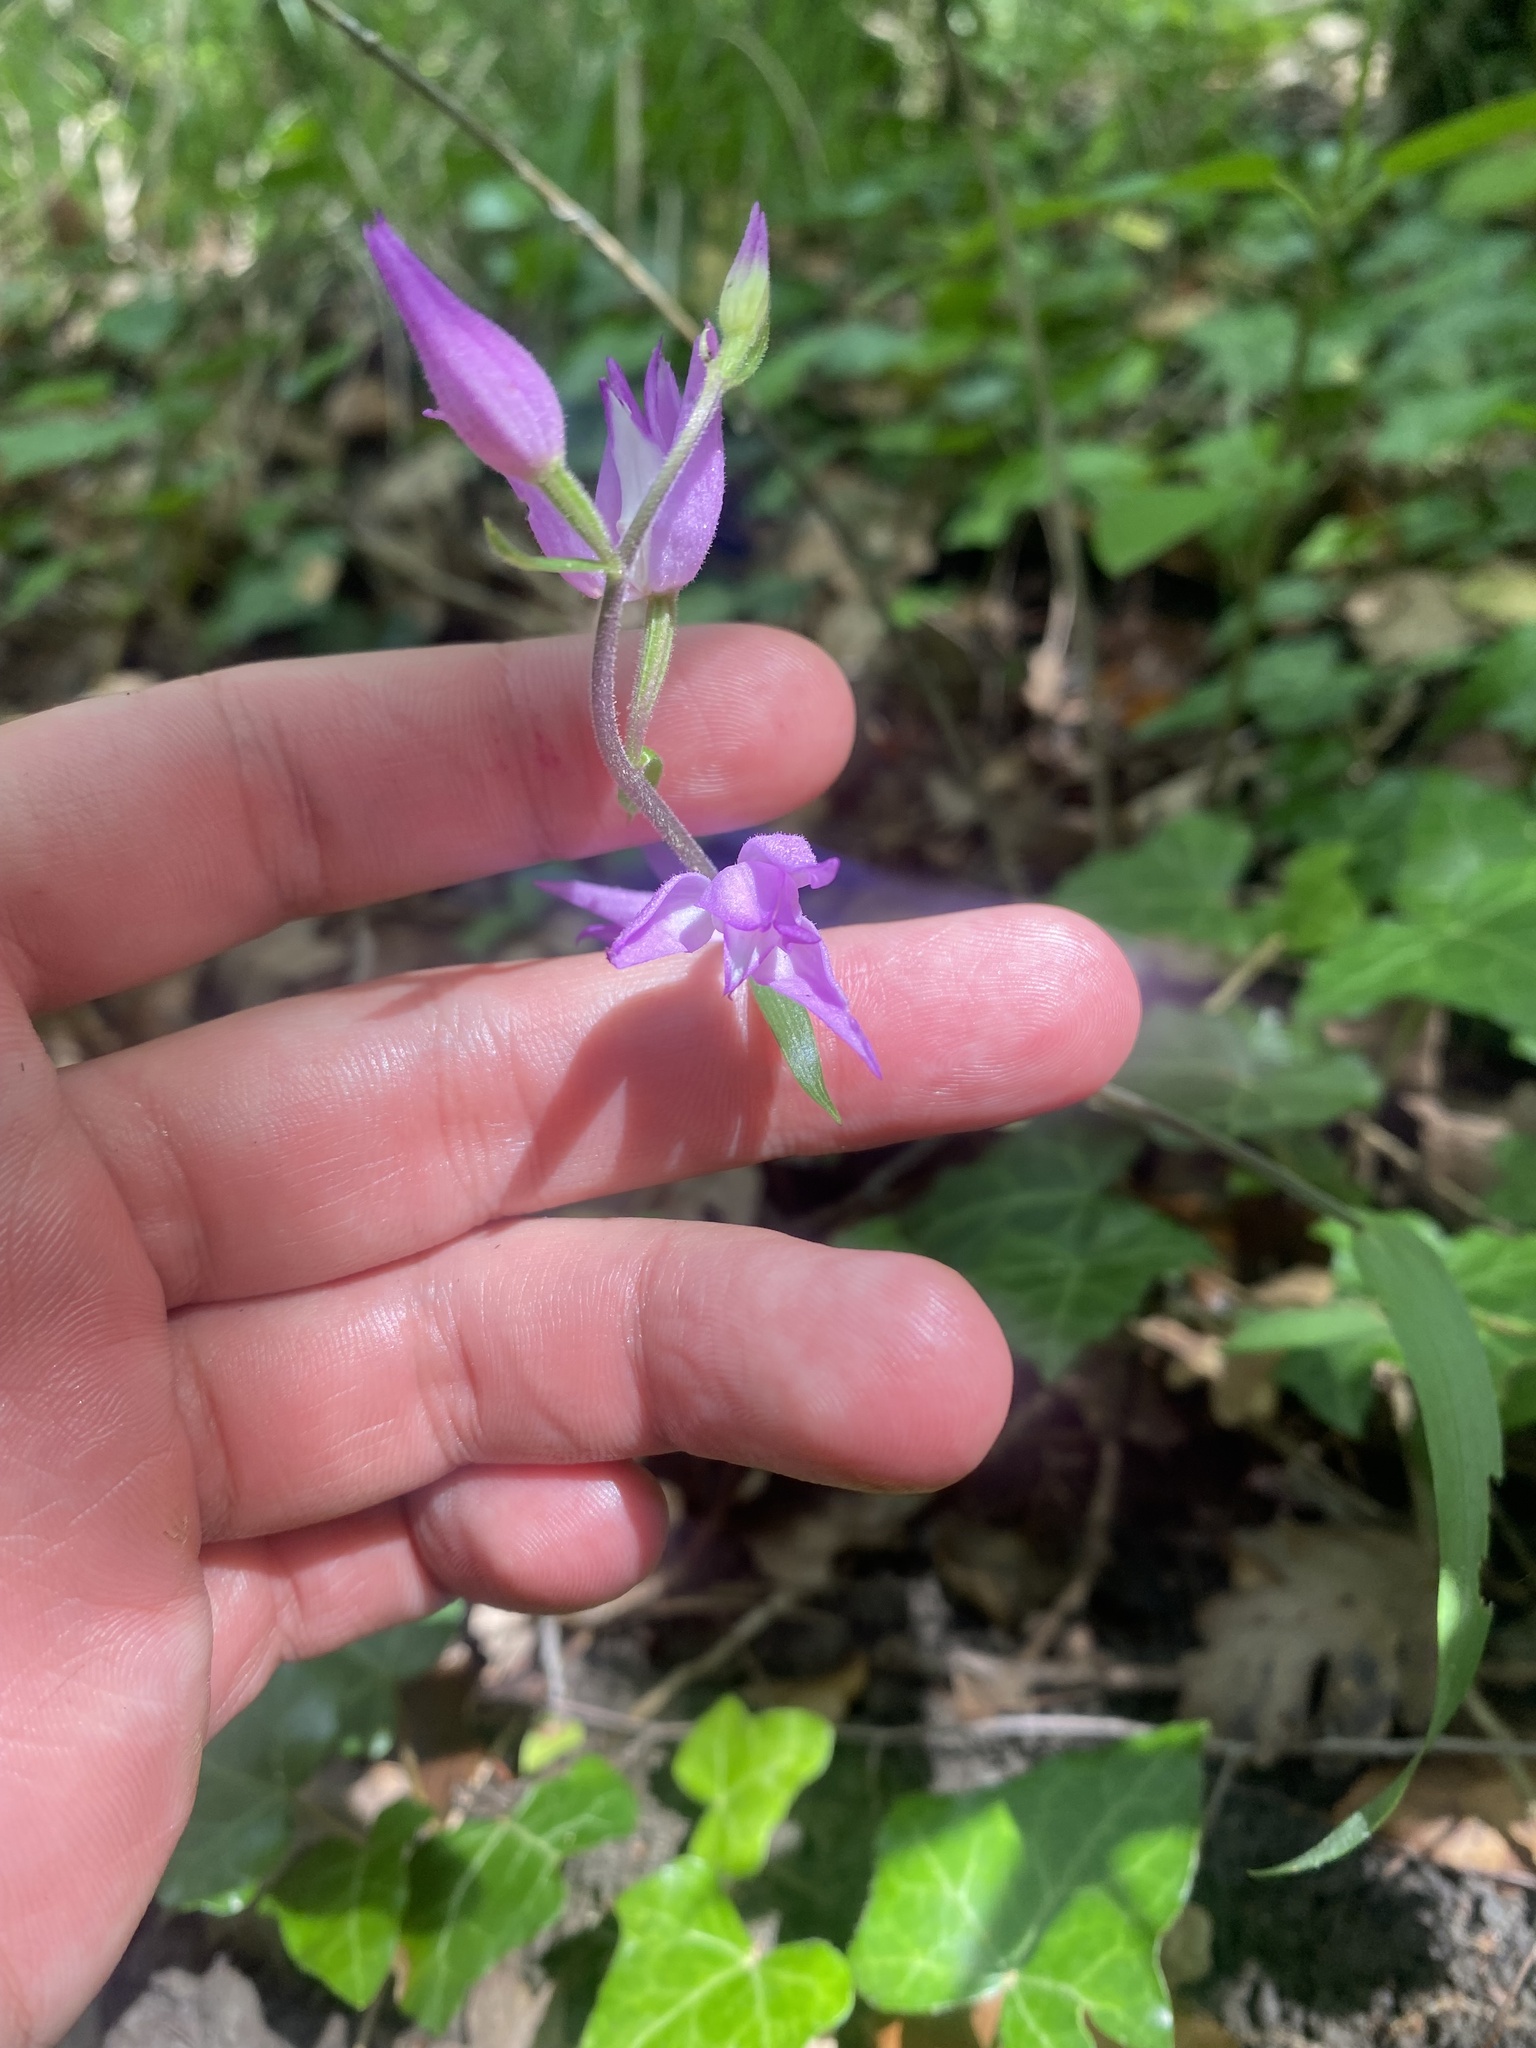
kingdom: Plantae
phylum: Tracheophyta
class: Liliopsida
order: Asparagales
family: Orchidaceae
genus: Cephalanthera
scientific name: Cephalanthera rubra
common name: Red helleborine
